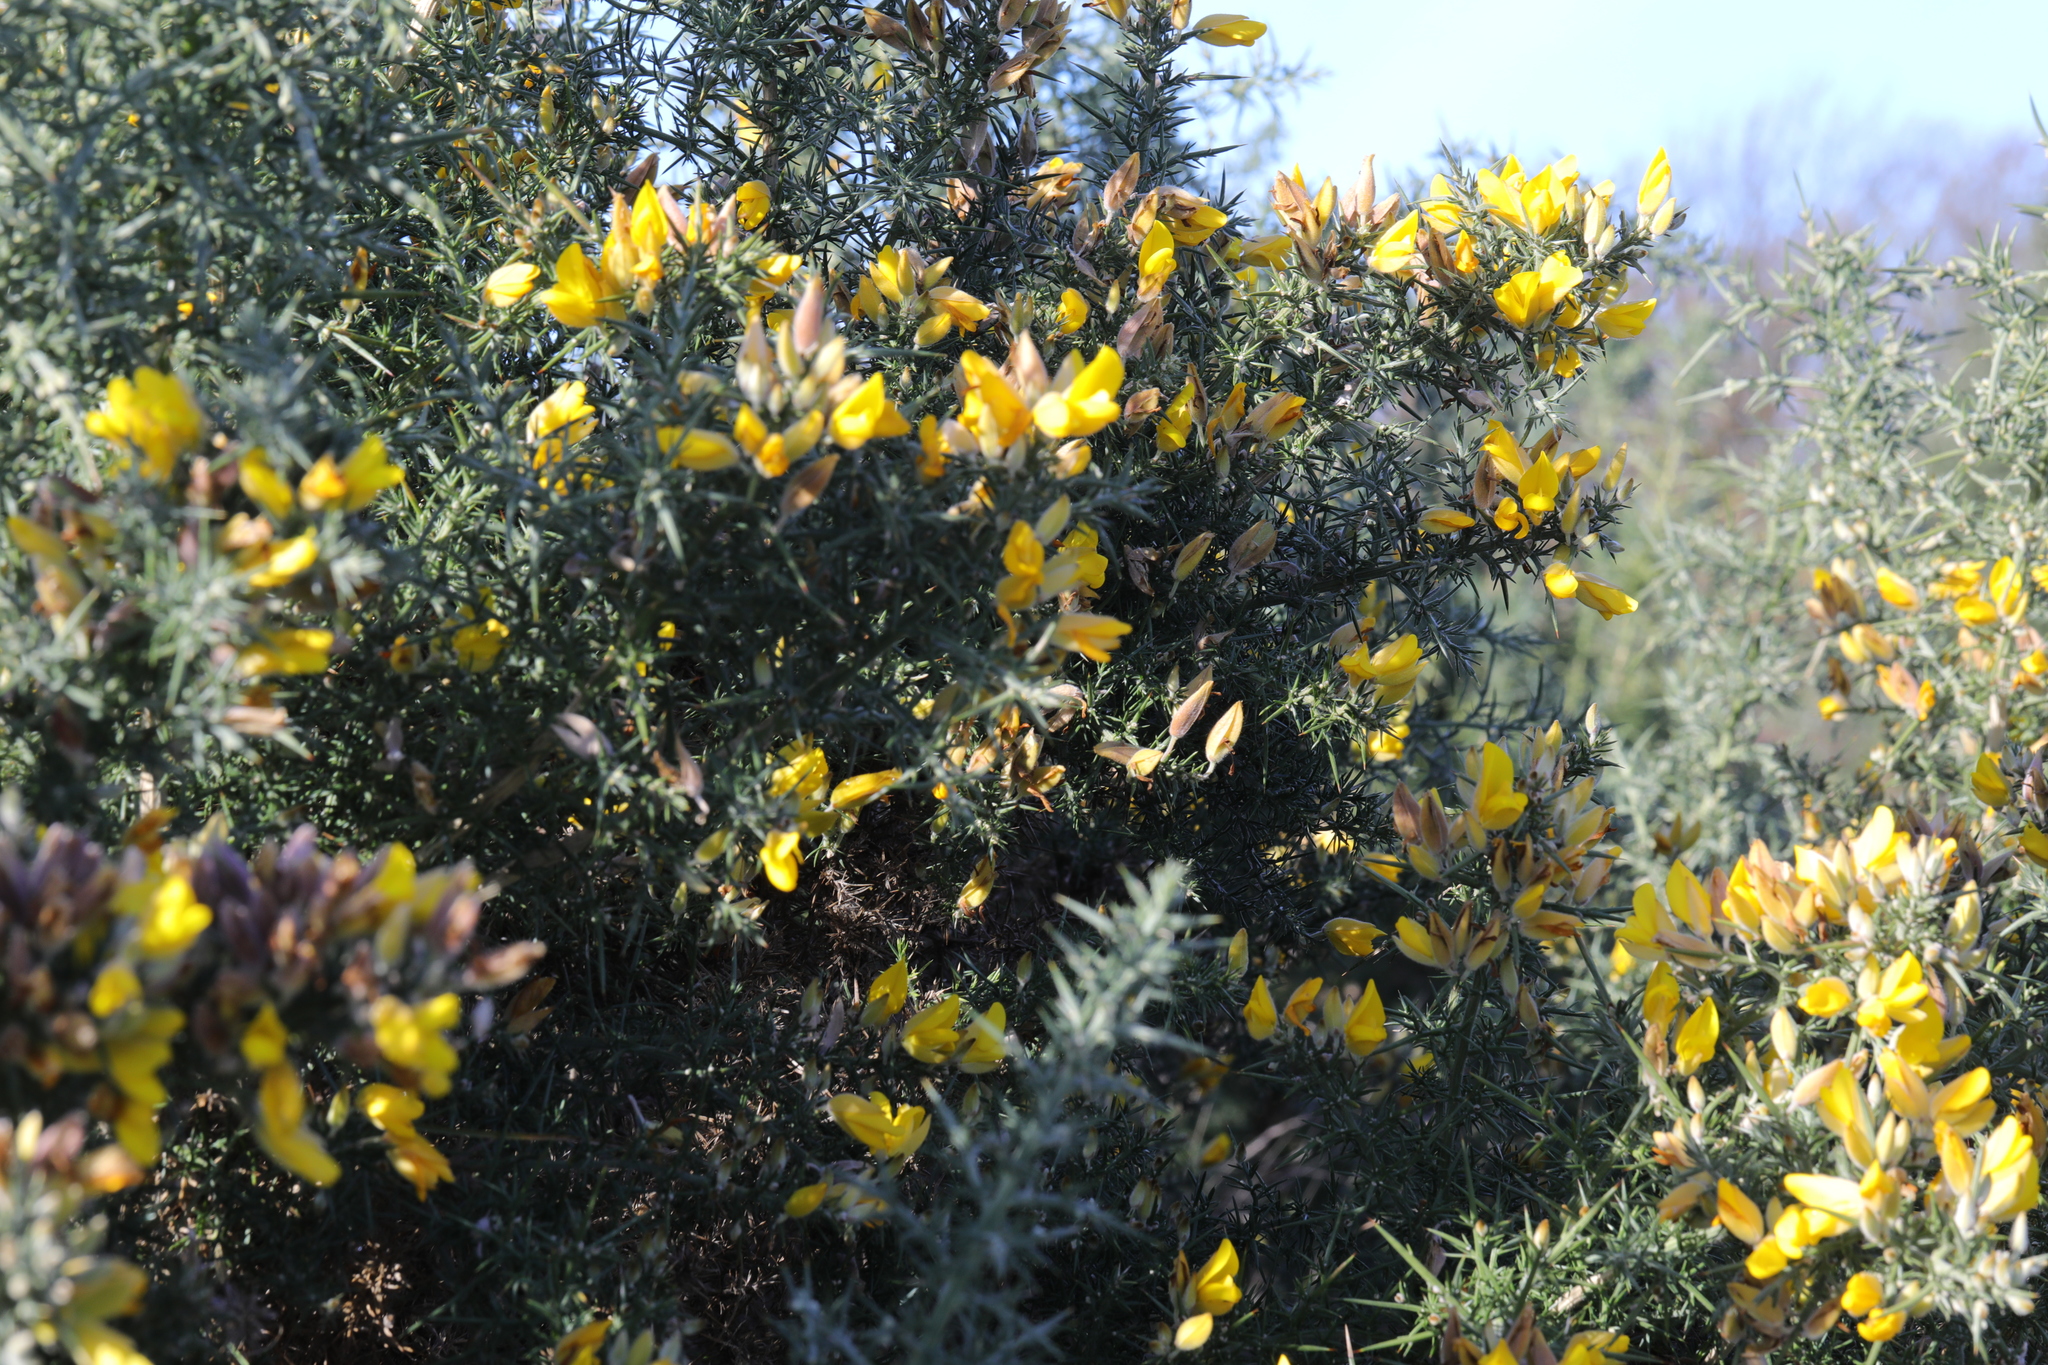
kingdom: Plantae
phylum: Tracheophyta
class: Magnoliopsida
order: Fabales
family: Fabaceae
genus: Ulex
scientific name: Ulex europaeus
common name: Common gorse
